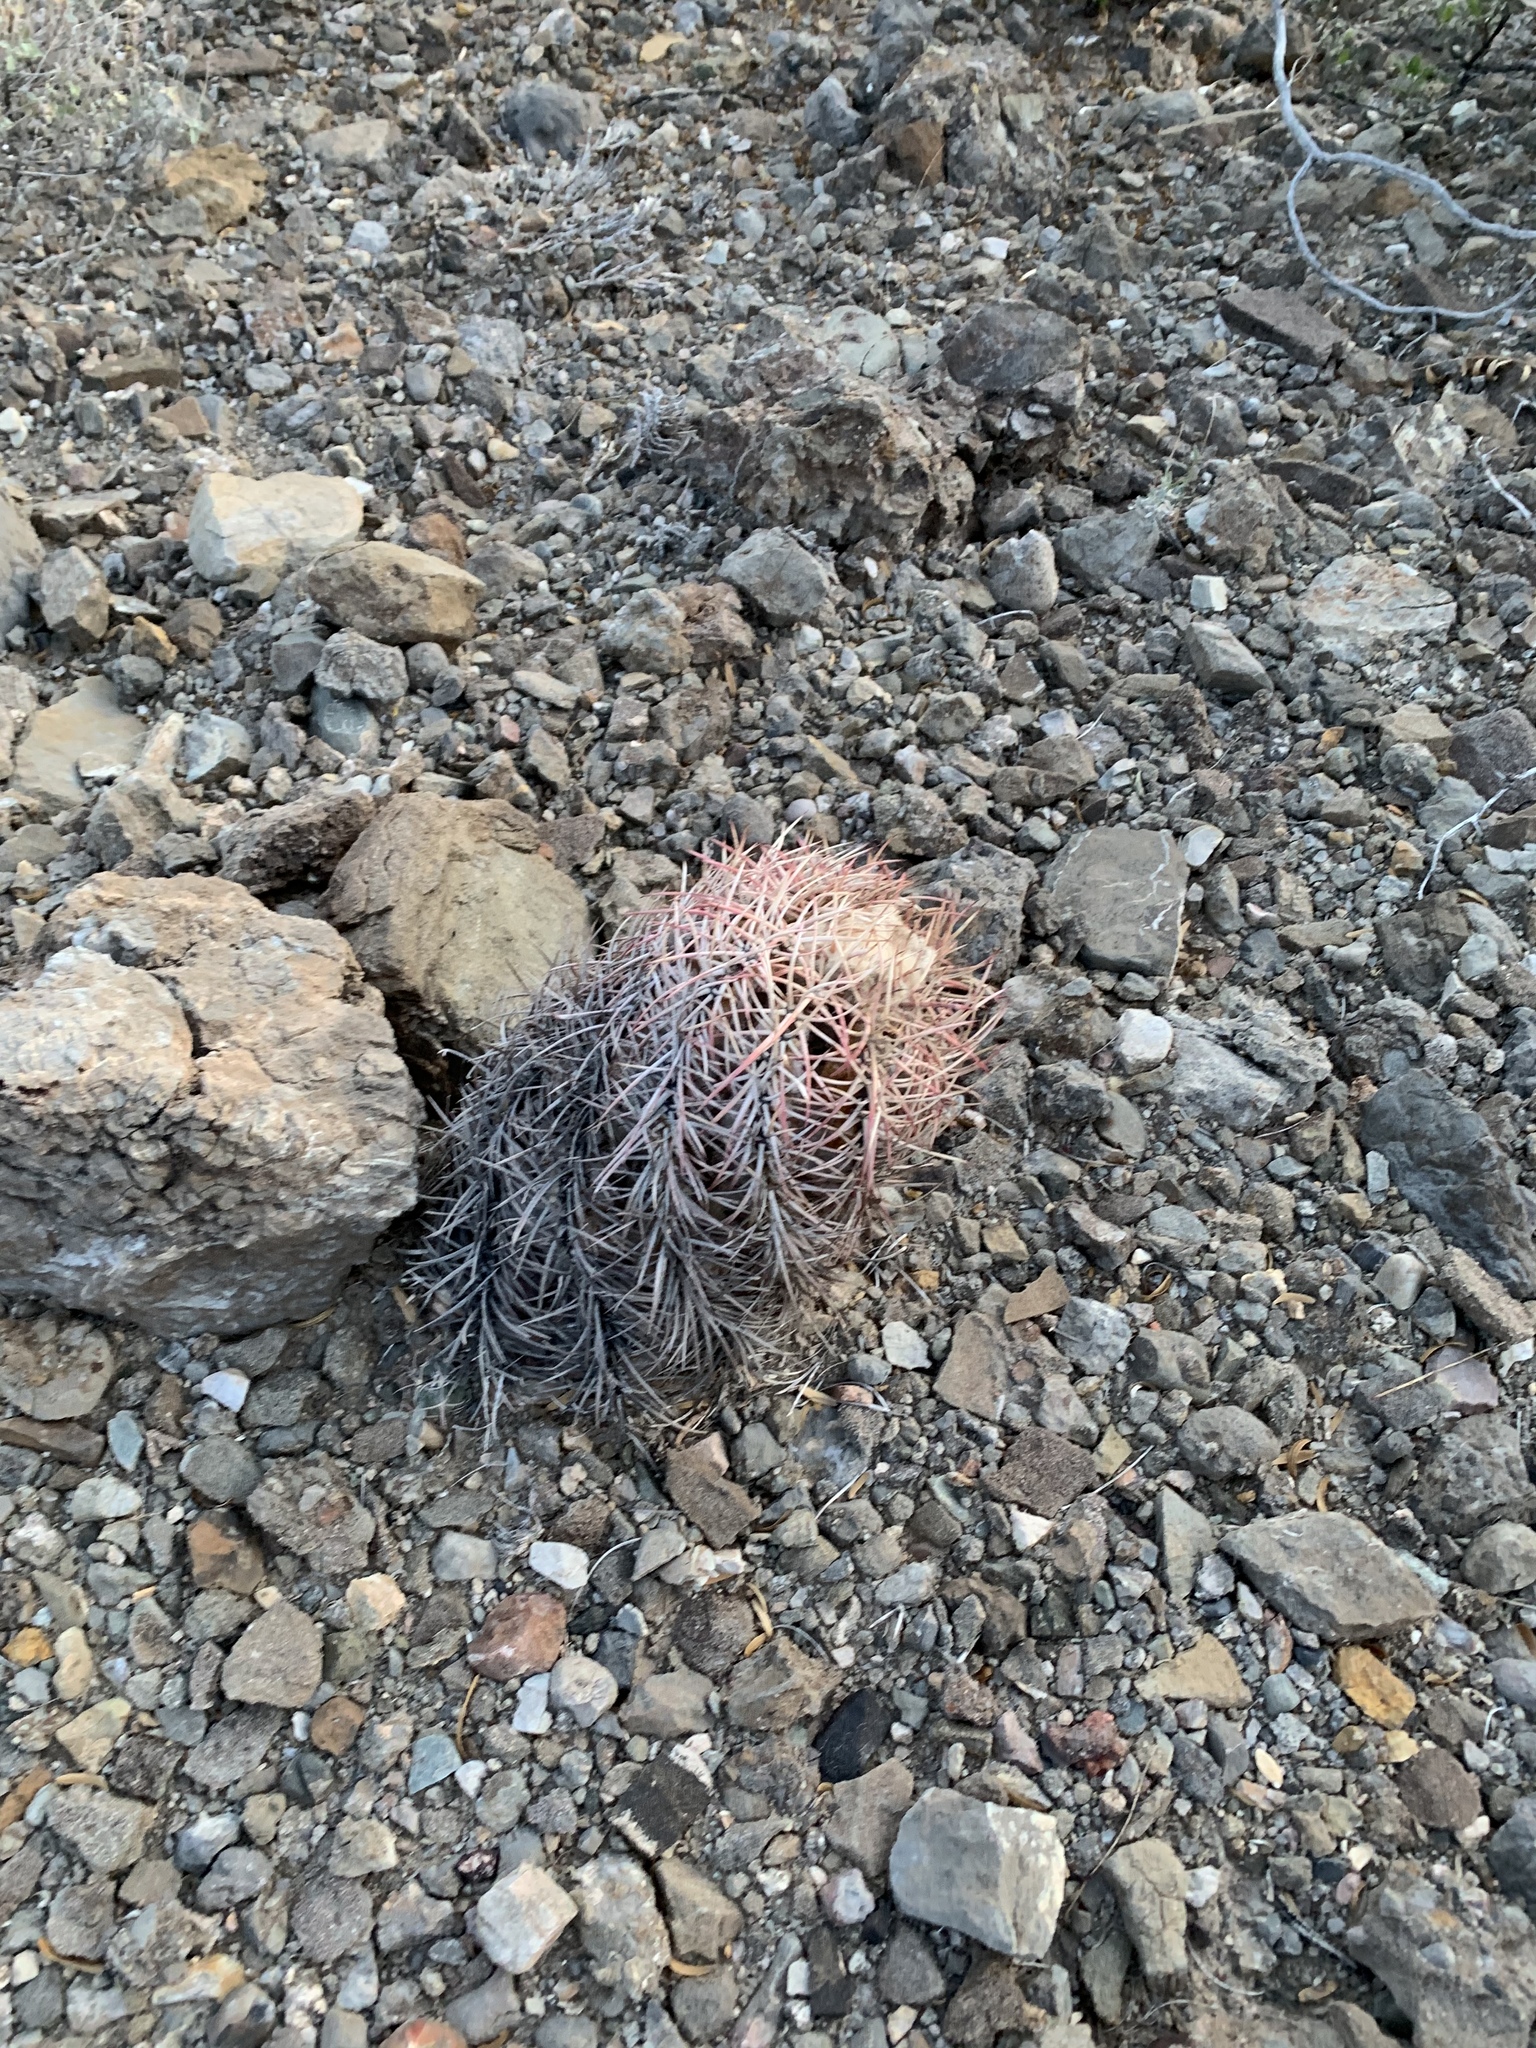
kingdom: Plantae
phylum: Tracheophyta
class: Magnoliopsida
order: Caryophyllales
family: Cactaceae
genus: Echinocactus
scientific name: Echinocactus horizonthalonius
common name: Devilshead
